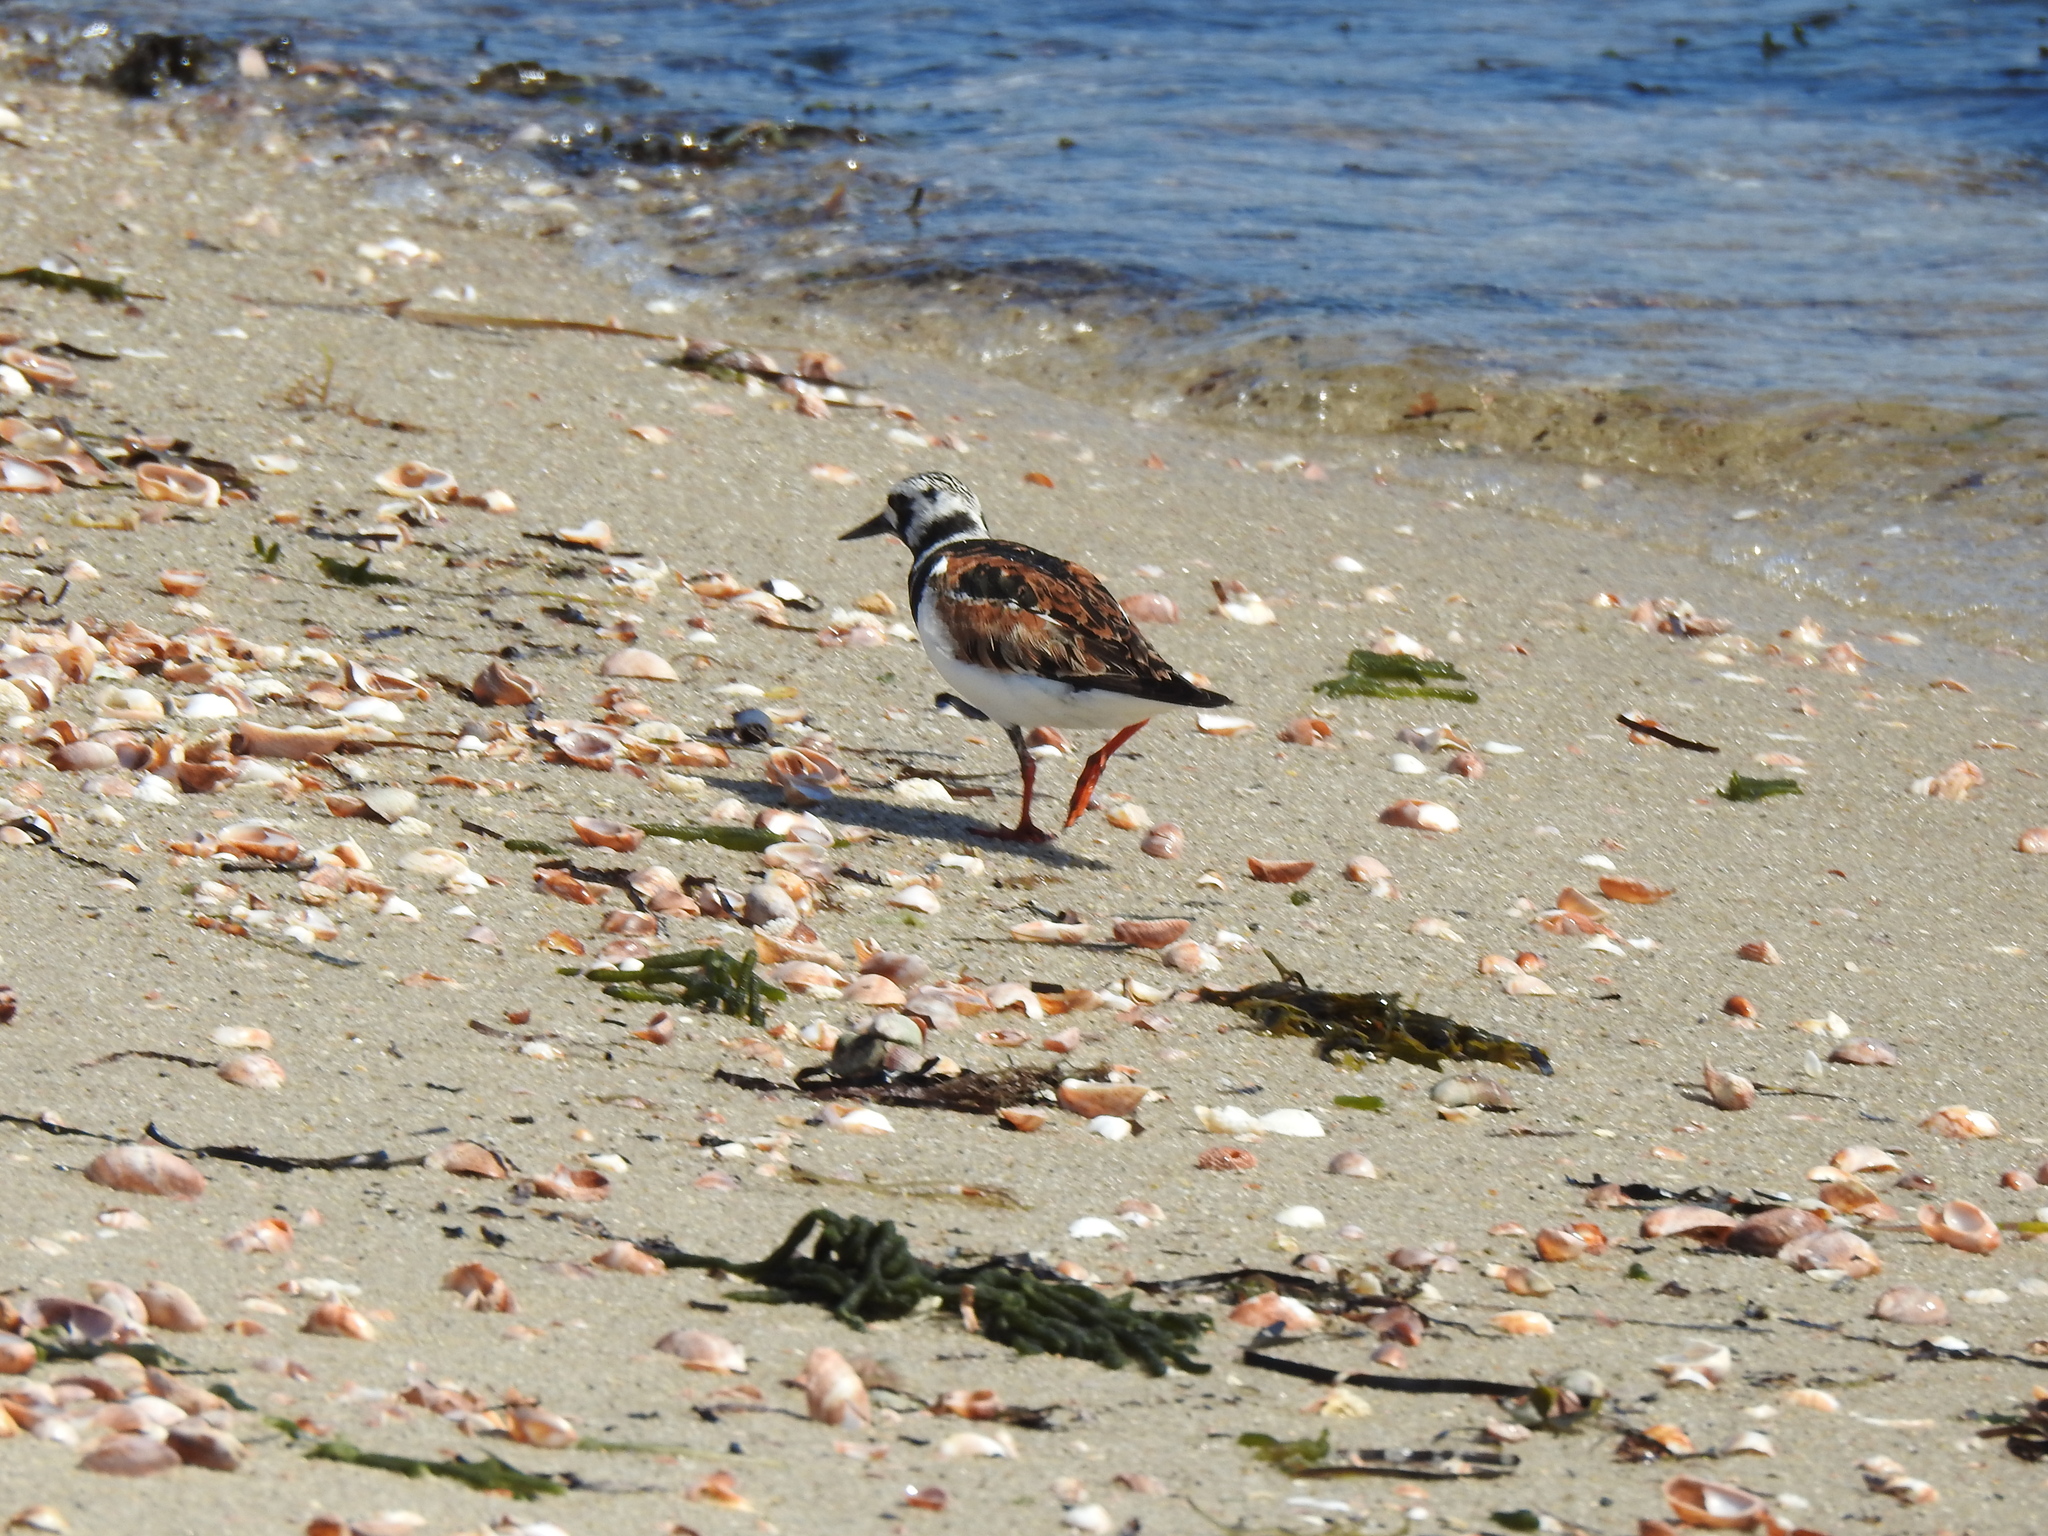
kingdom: Animalia
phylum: Chordata
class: Aves
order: Charadriiformes
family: Scolopacidae
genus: Arenaria
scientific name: Arenaria interpres
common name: Ruddy turnstone
